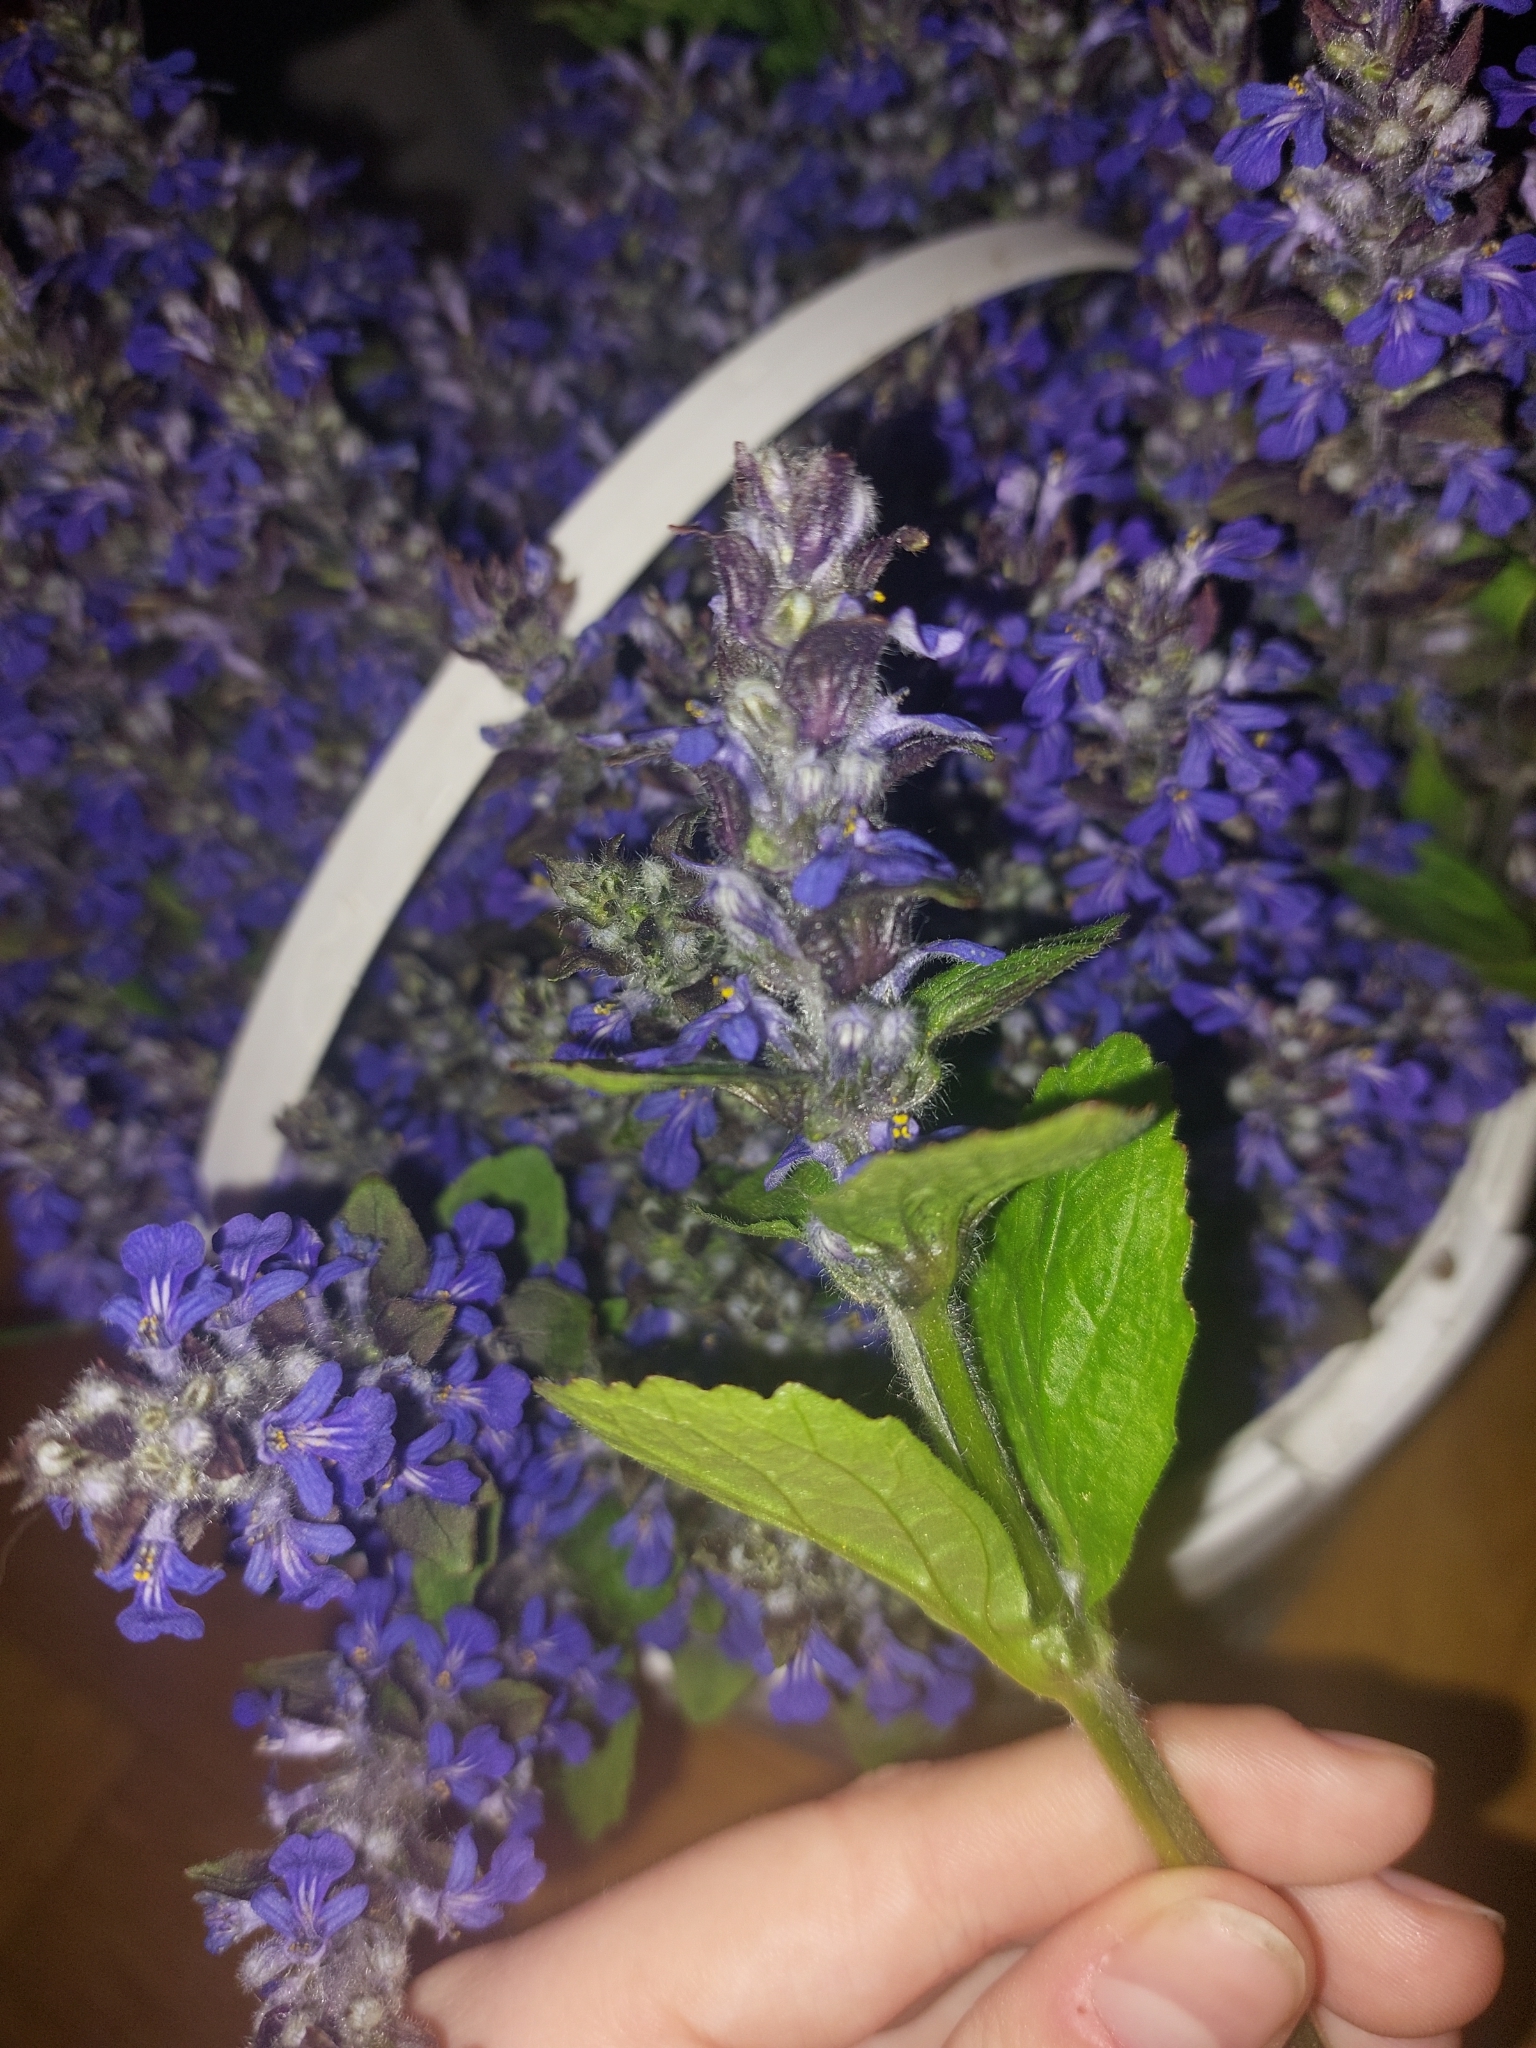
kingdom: Plantae
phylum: Tracheophyta
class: Magnoliopsida
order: Lamiales
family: Lamiaceae
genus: Ajuga
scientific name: Ajuga reptans
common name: Bugle
